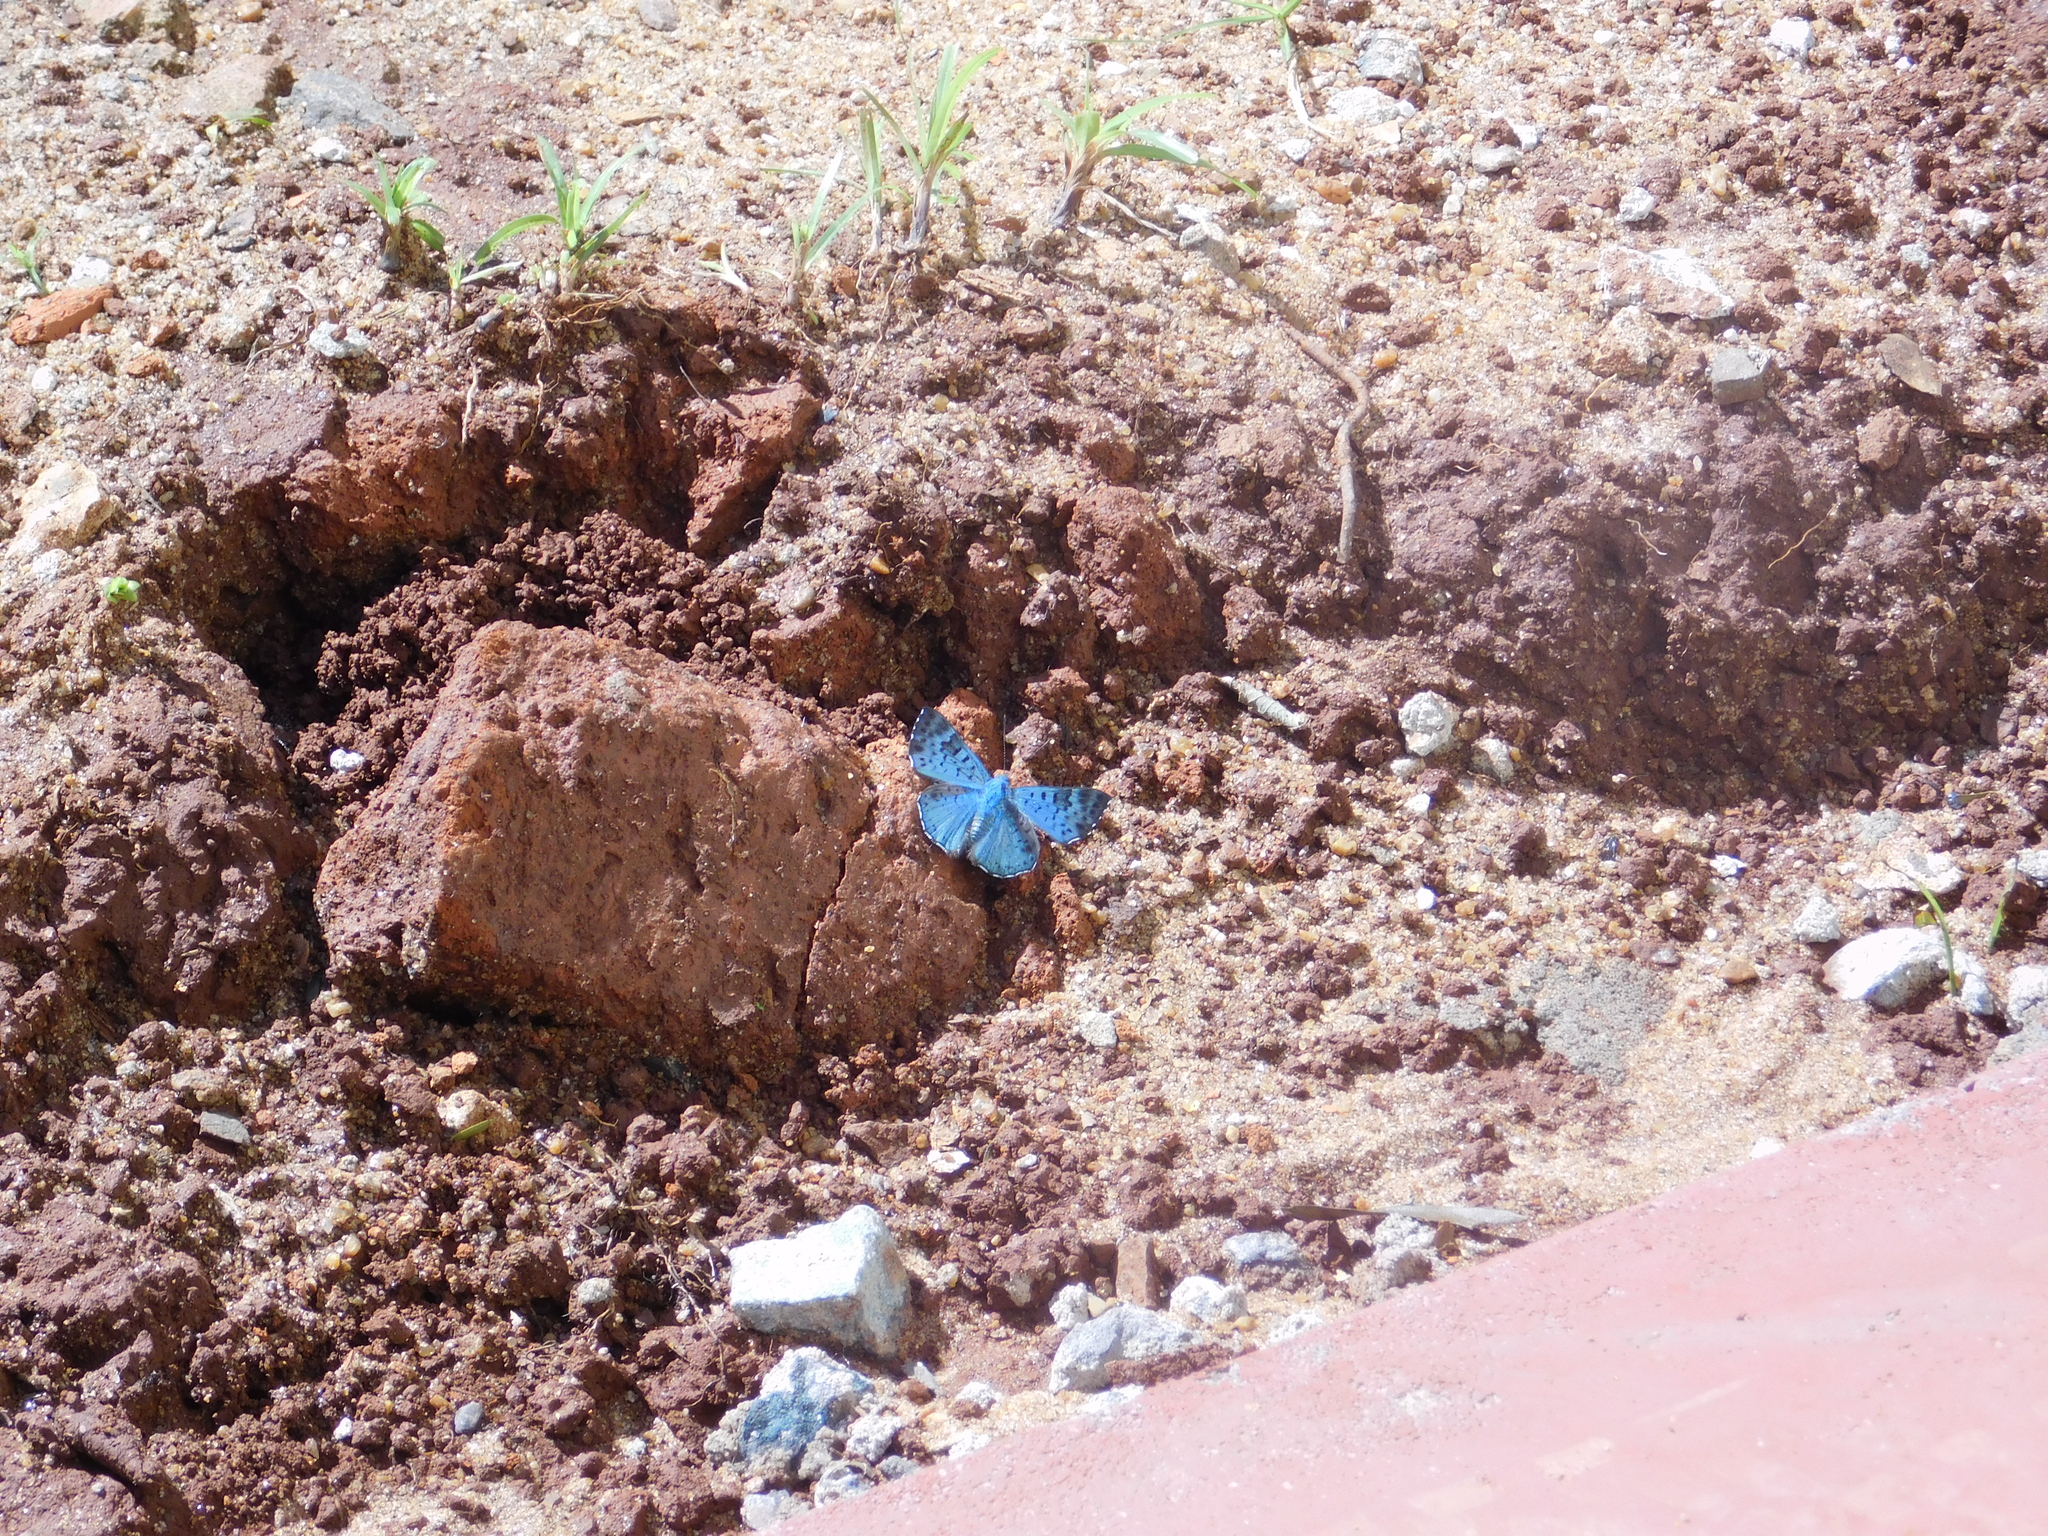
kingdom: Animalia
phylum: Arthropoda
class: Insecta
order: Lepidoptera
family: Riodinidae
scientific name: Riodinidae
